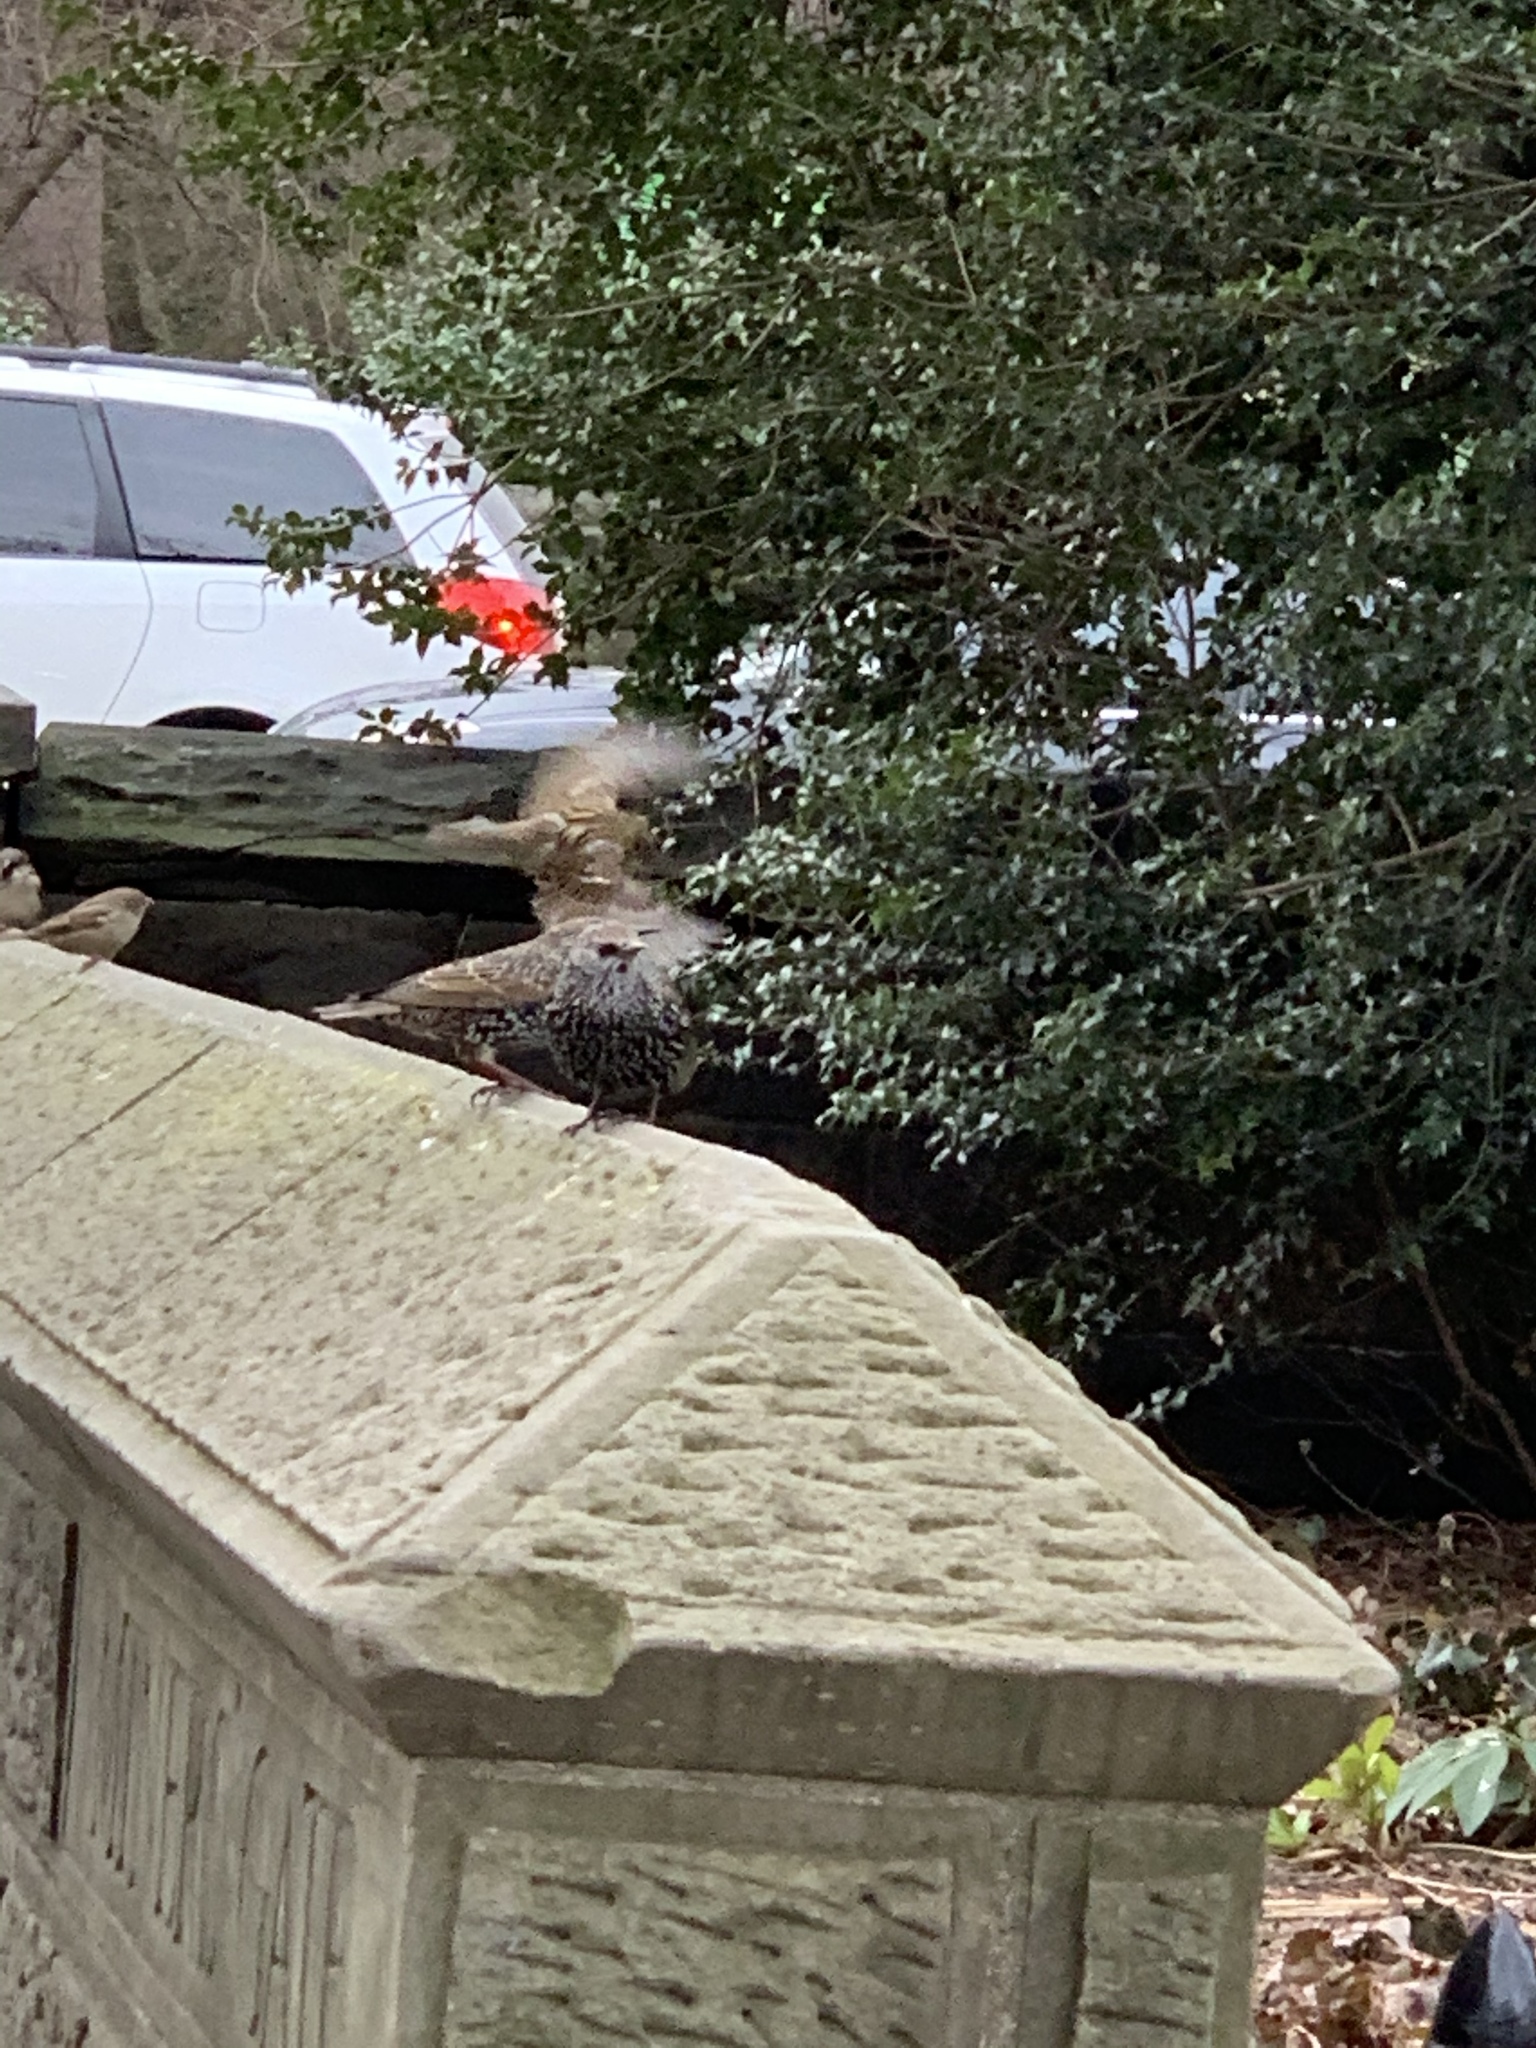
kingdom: Animalia
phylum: Chordata
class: Aves
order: Passeriformes
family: Sturnidae
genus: Sturnus
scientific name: Sturnus vulgaris
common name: Common starling
